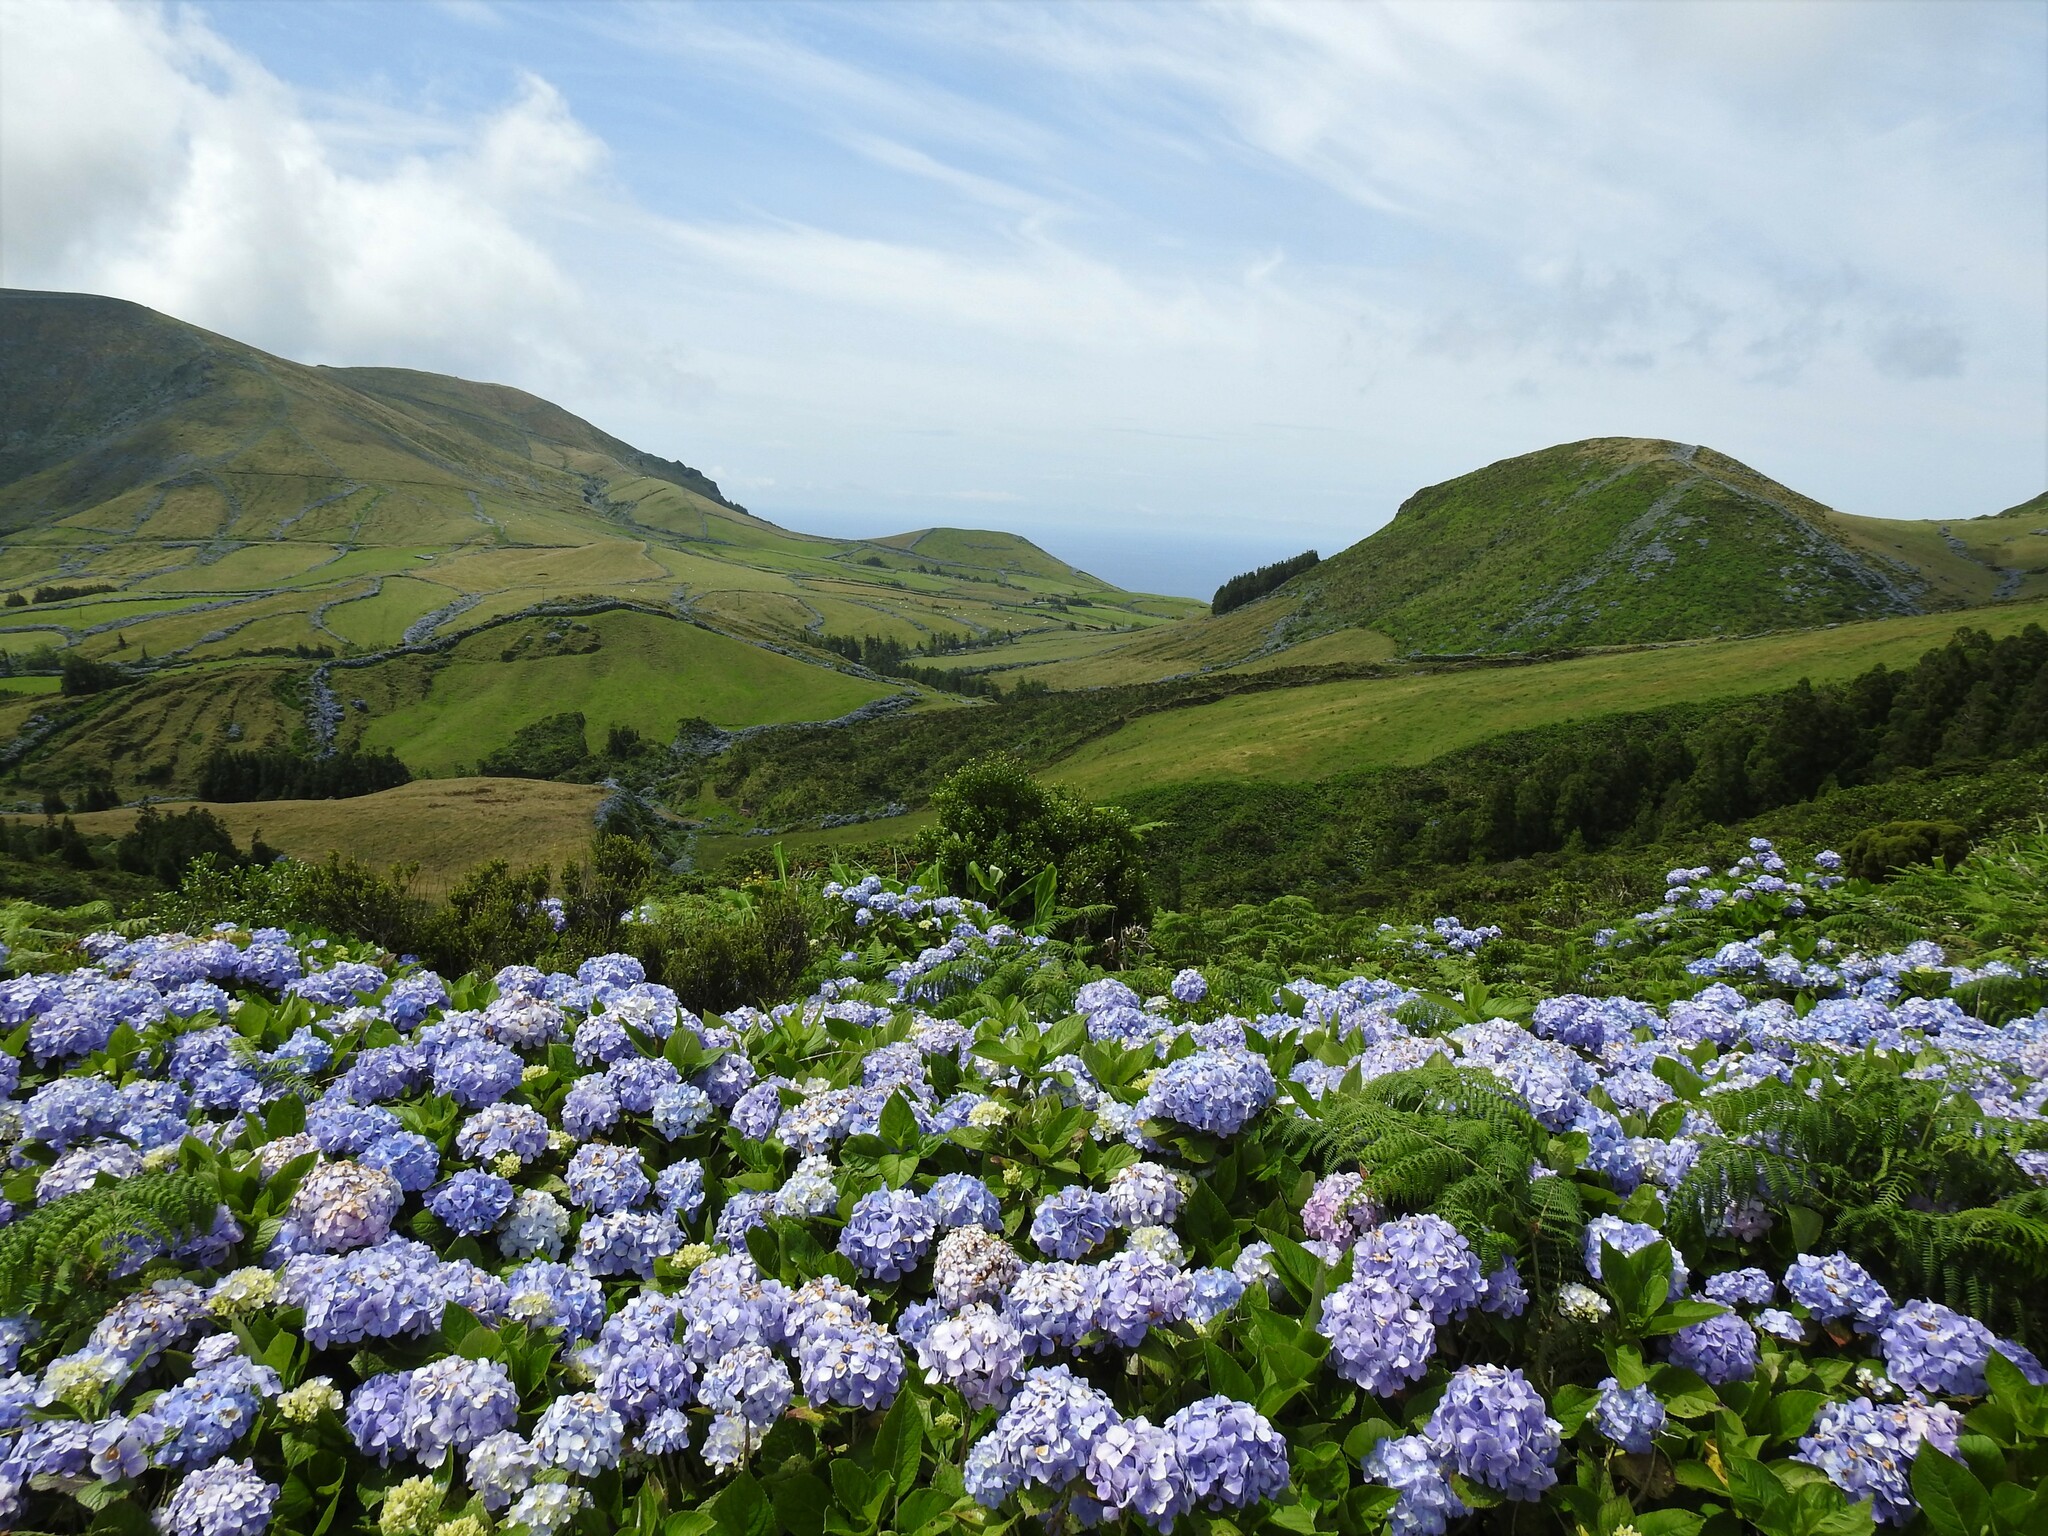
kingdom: Plantae
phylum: Tracheophyta
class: Magnoliopsida
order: Cornales
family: Hydrangeaceae
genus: Hydrangea
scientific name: Hydrangea macrophylla
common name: Hydrangea
